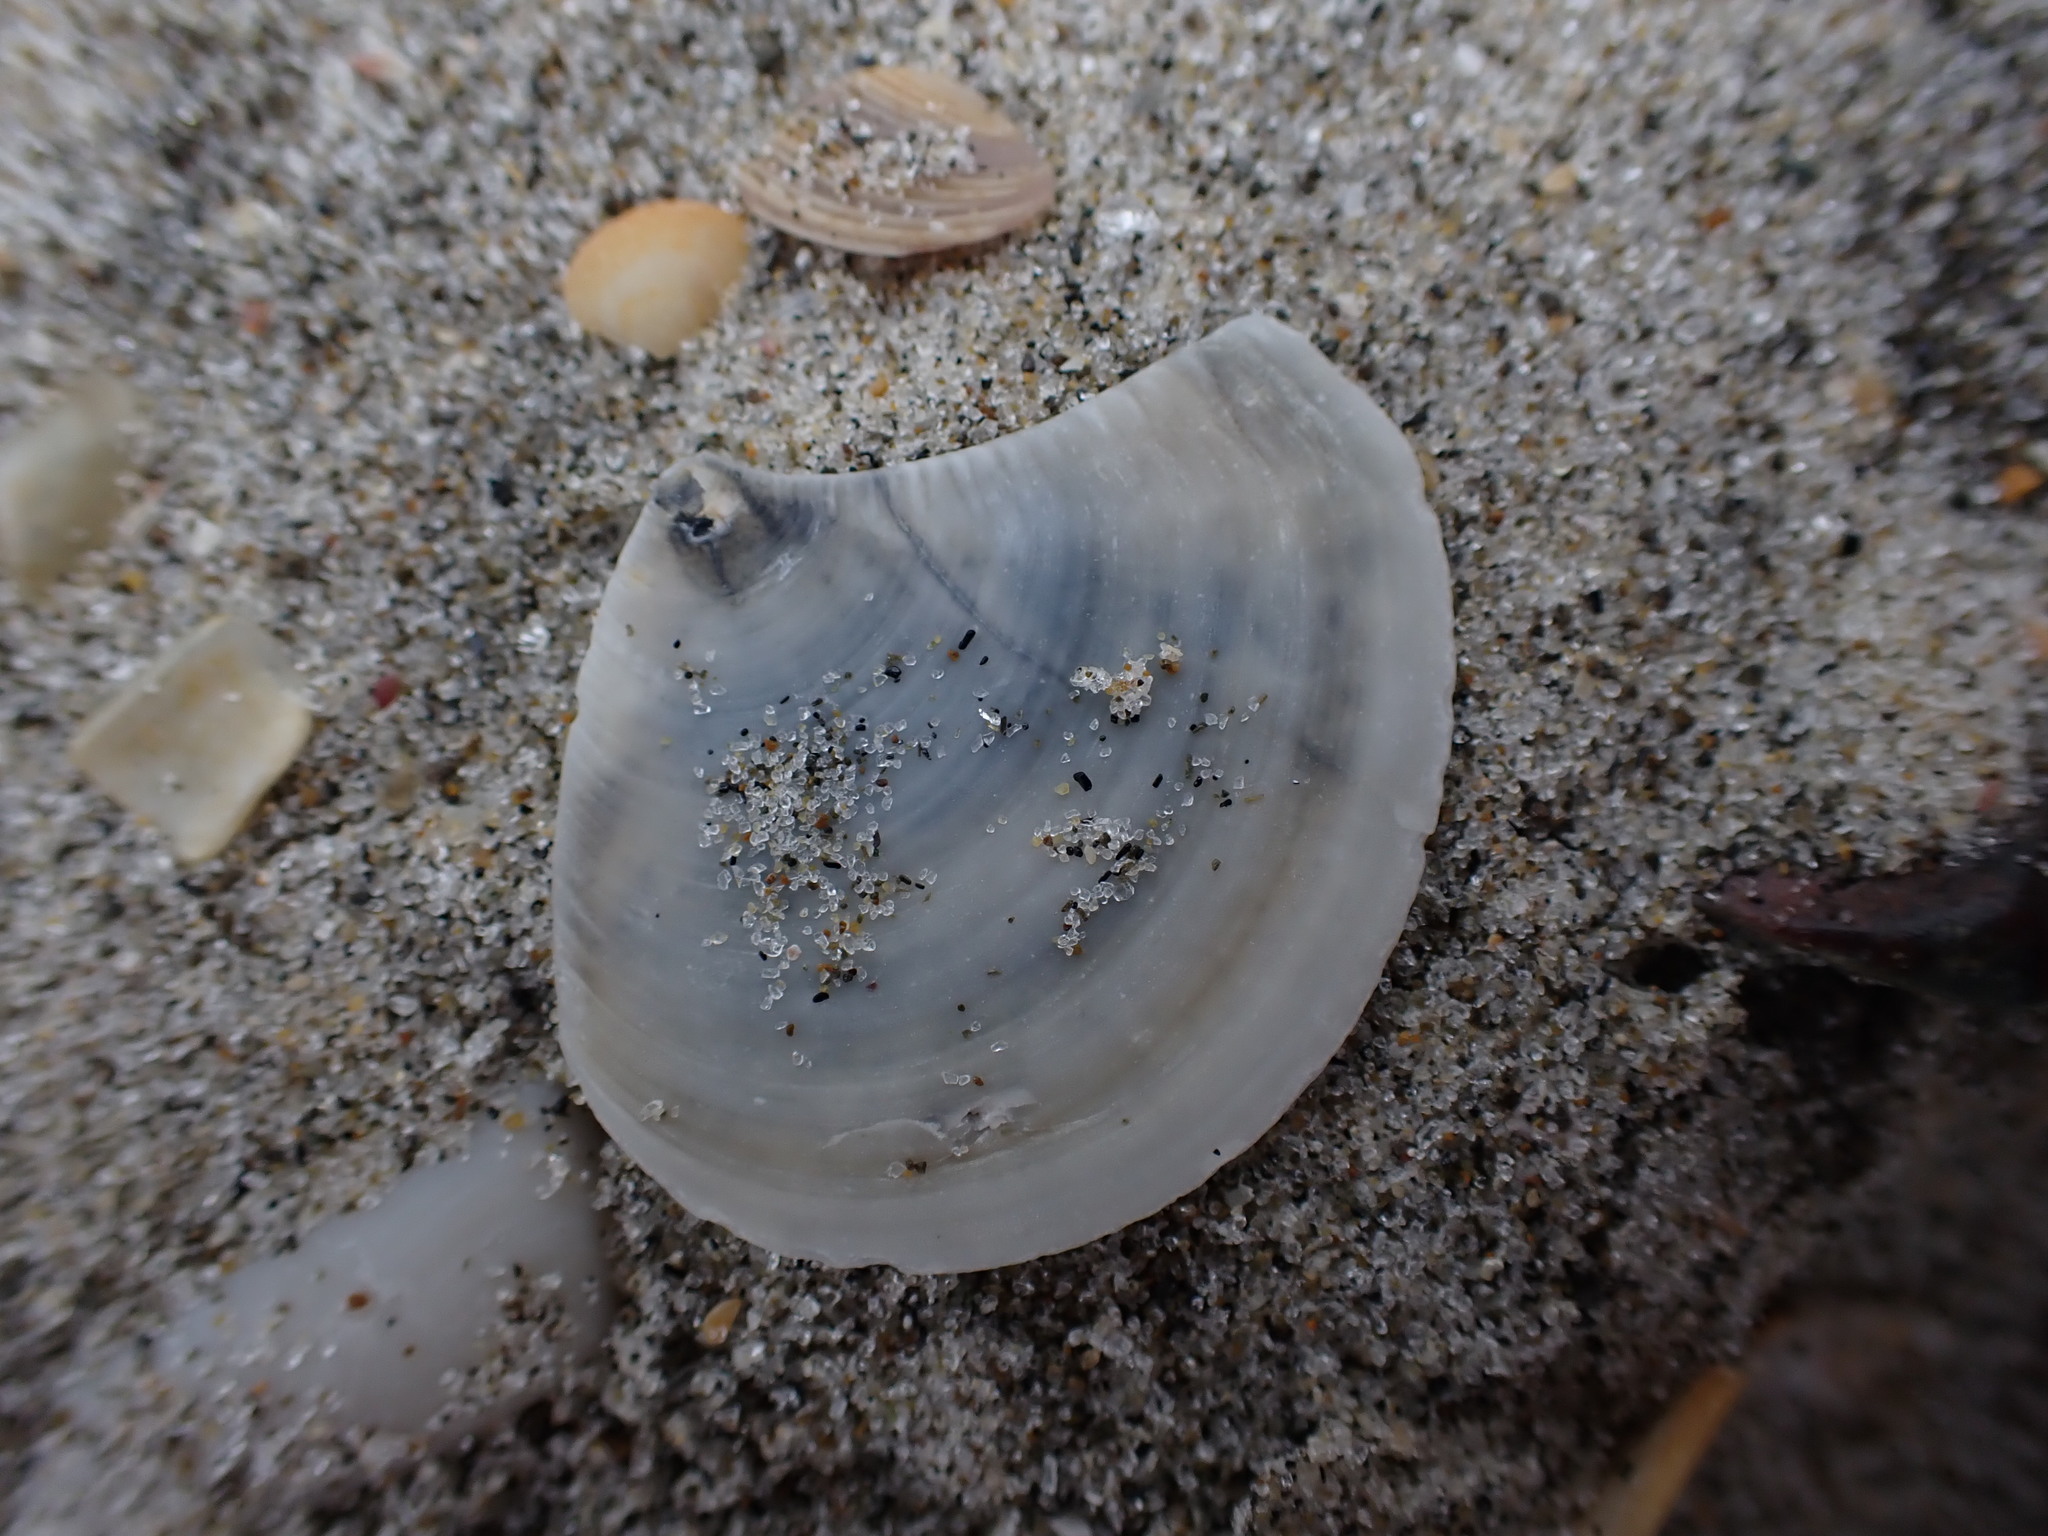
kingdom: Animalia
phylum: Mollusca
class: Bivalvia
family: Myochamidae
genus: Myadora
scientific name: Myadora striata
